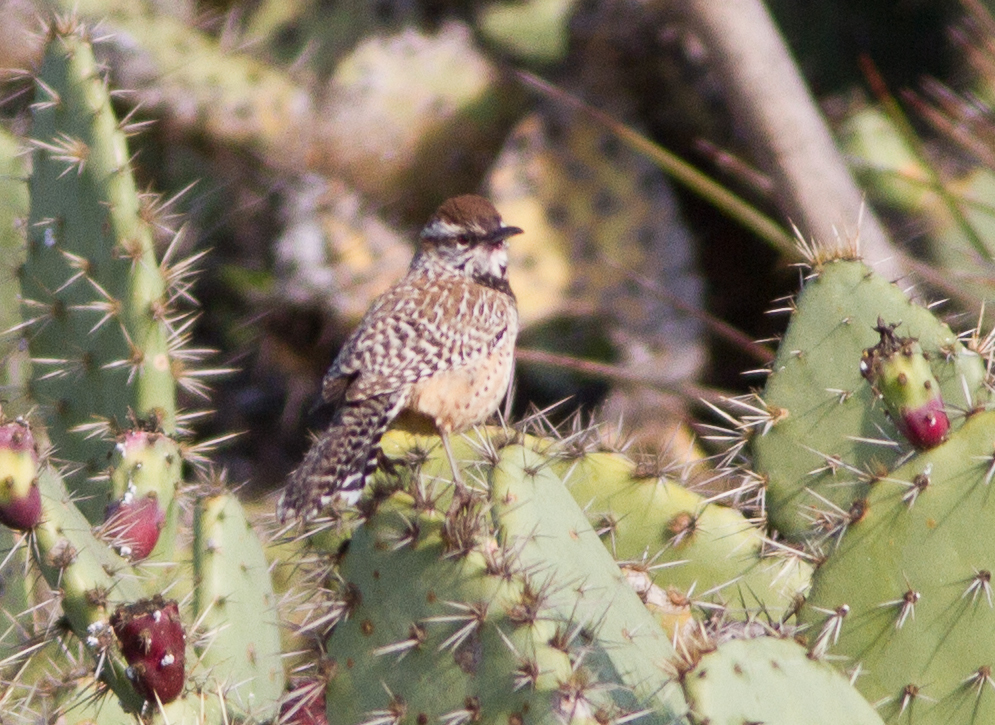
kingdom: Animalia
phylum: Chordata
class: Aves
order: Passeriformes
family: Troglodytidae
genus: Campylorhynchus
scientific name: Campylorhynchus brunneicapillus
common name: Cactus wren
